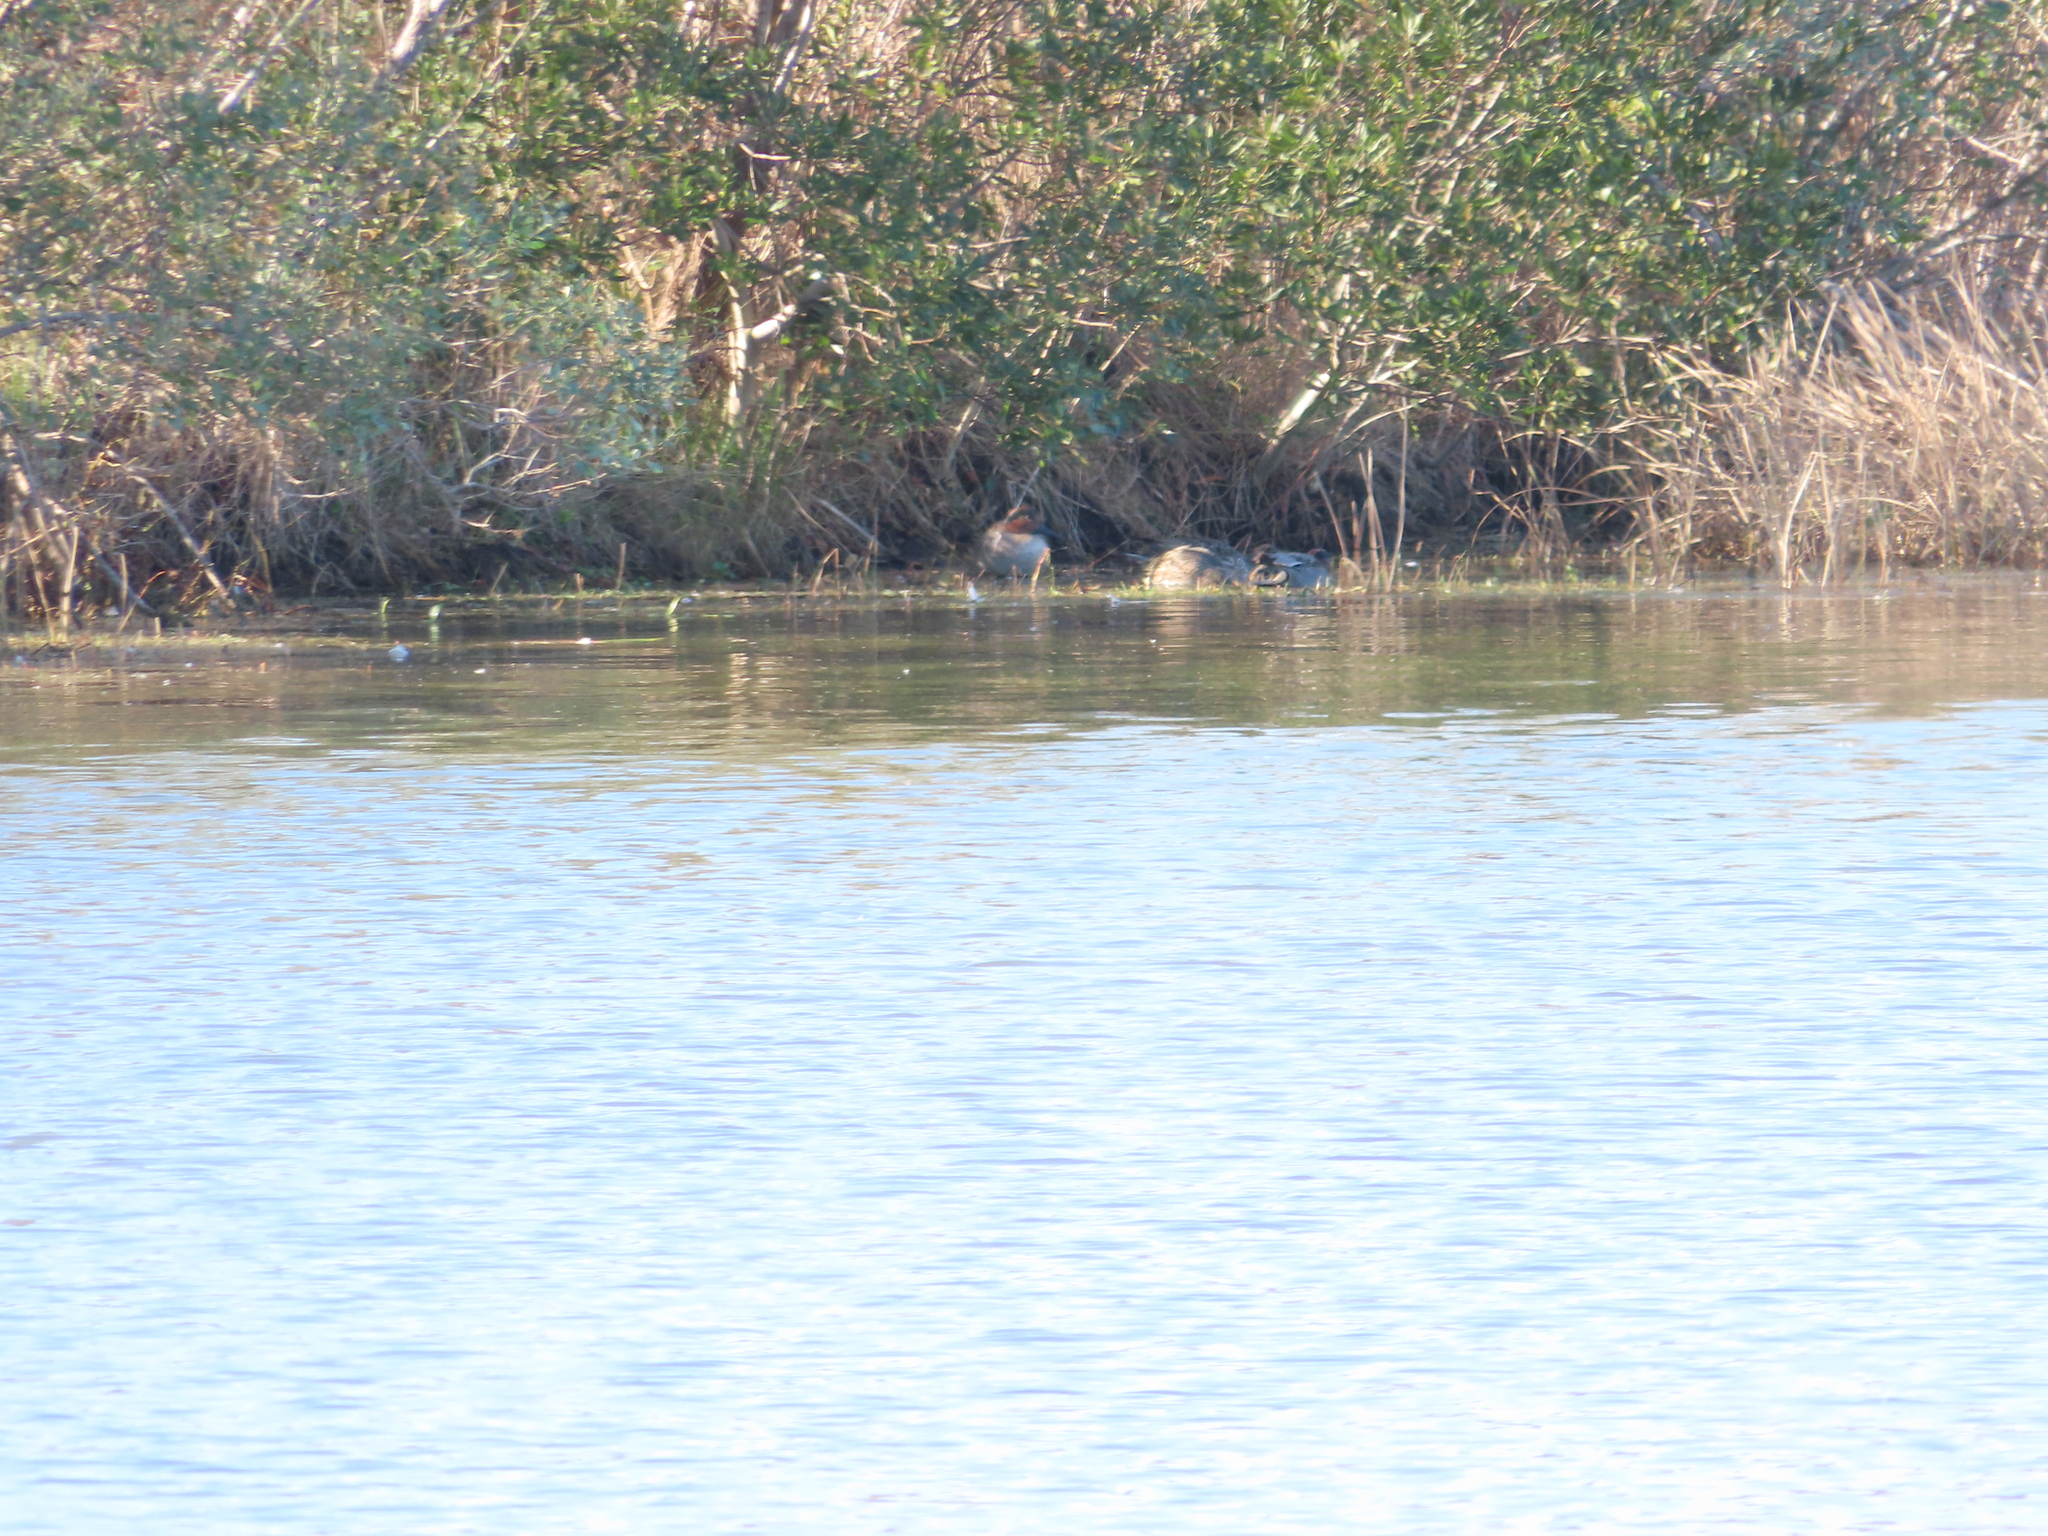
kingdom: Animalia
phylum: Chordata
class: Aves
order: Anseriformes
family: Anatidae
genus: Anas
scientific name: Anas crecca
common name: Eurasian teal
